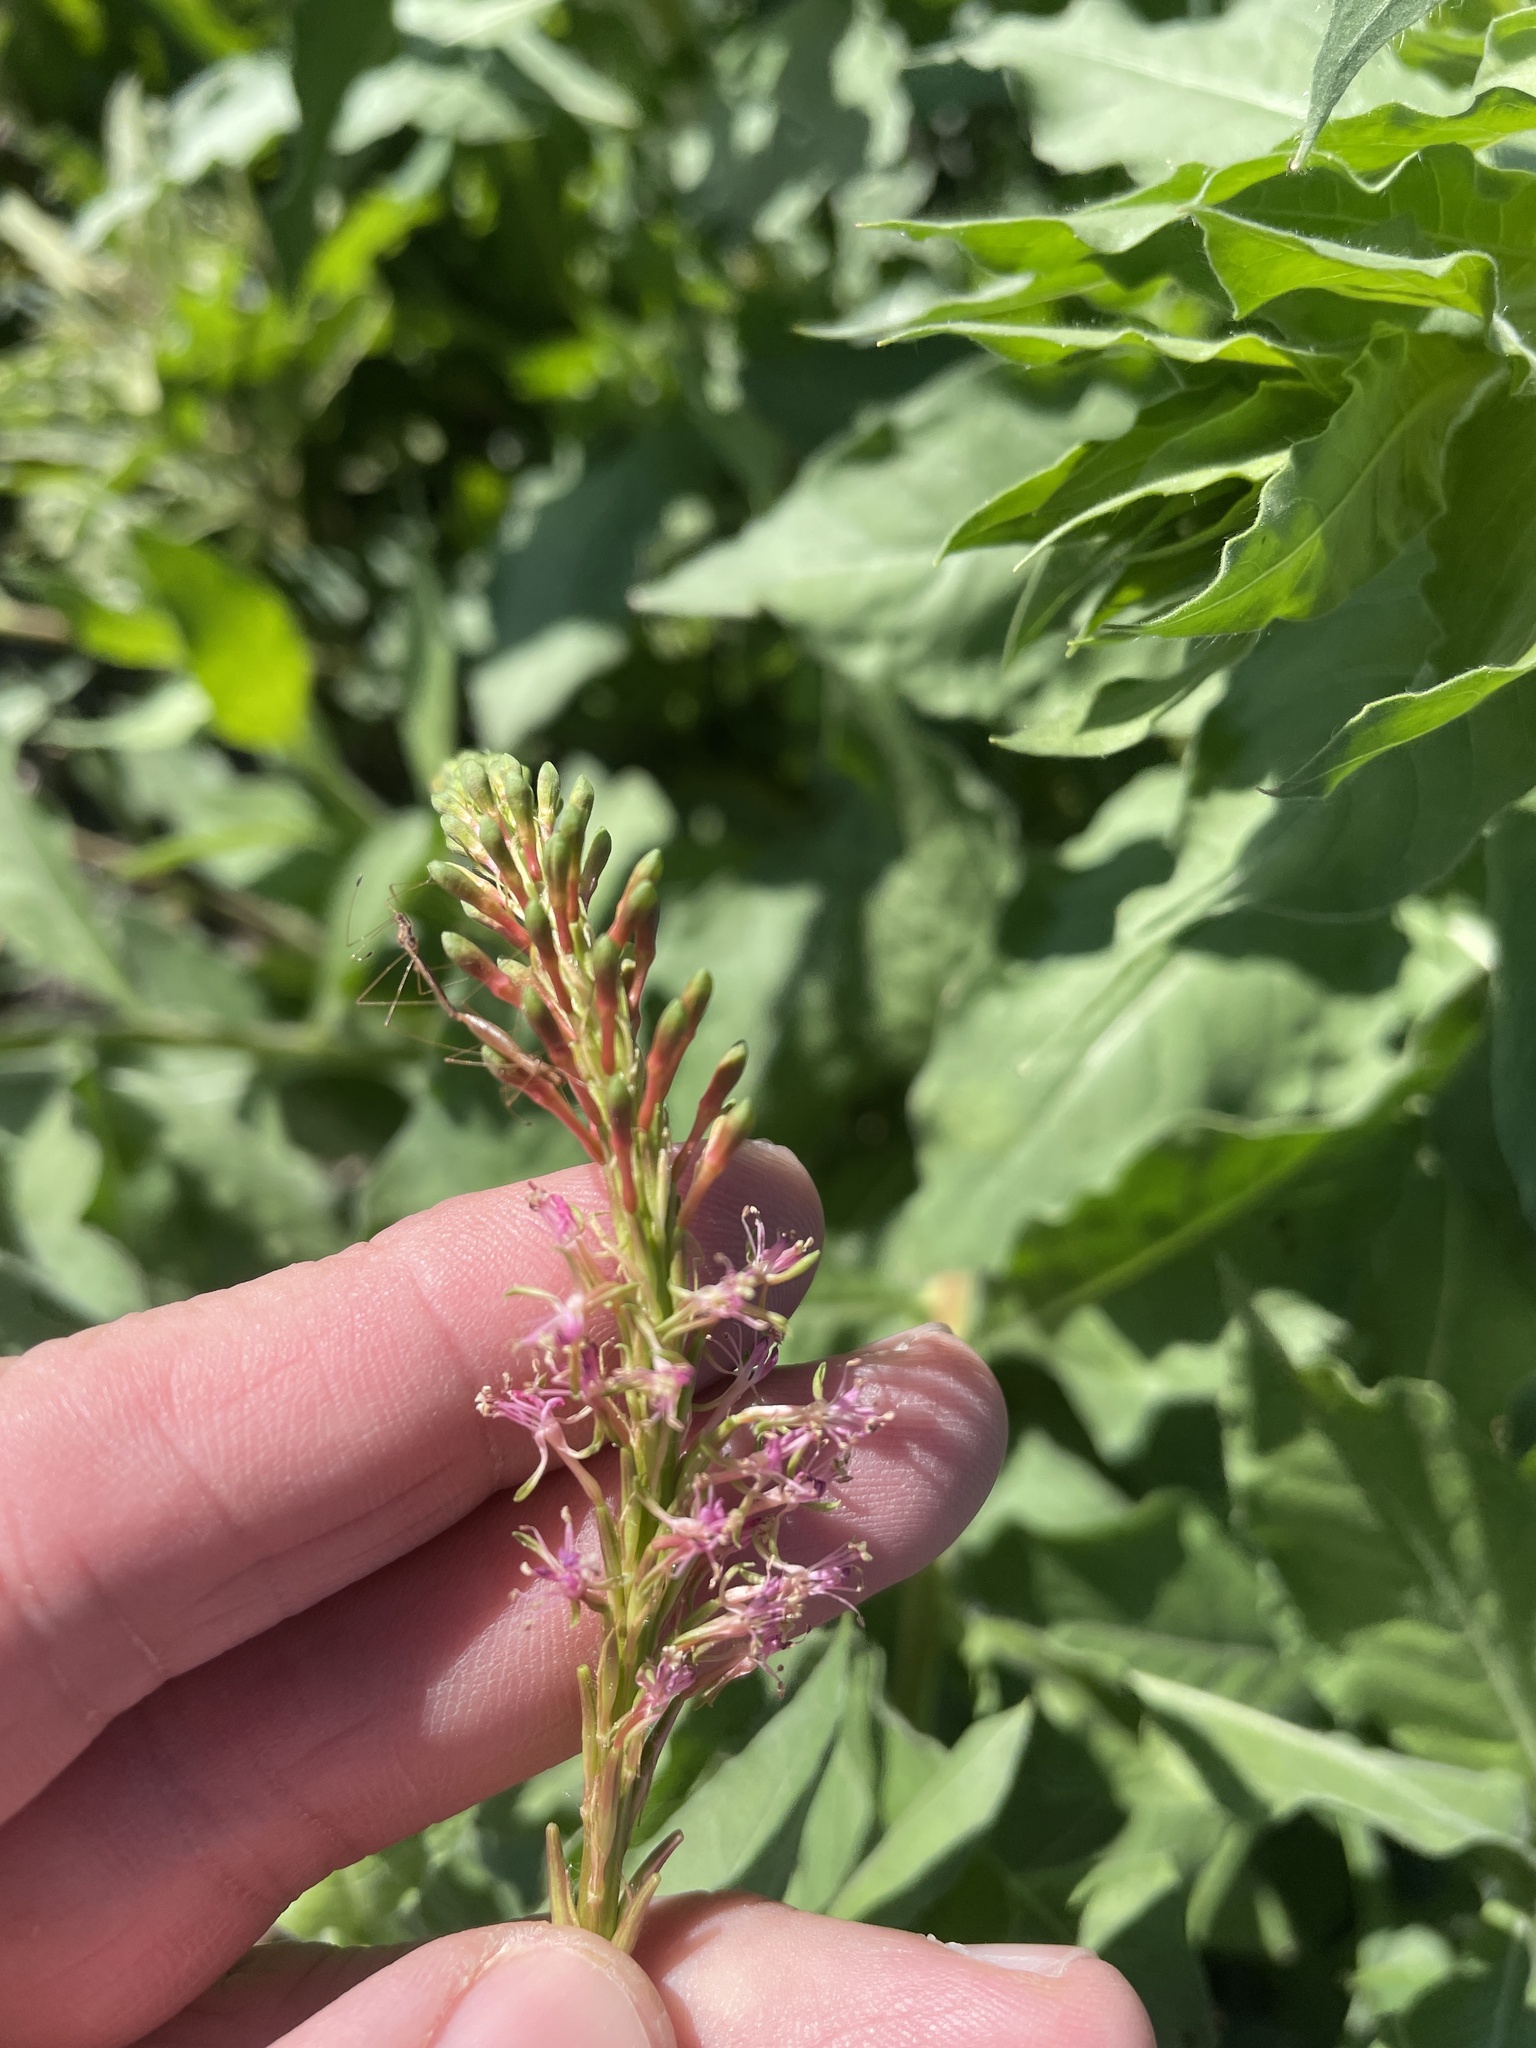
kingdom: Plantae
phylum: Tracheophyta
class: Magnoliopsida
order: Myrtales
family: Onagraceae
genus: Oenothera
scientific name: Oenothera curtiflora
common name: Velvetweed
